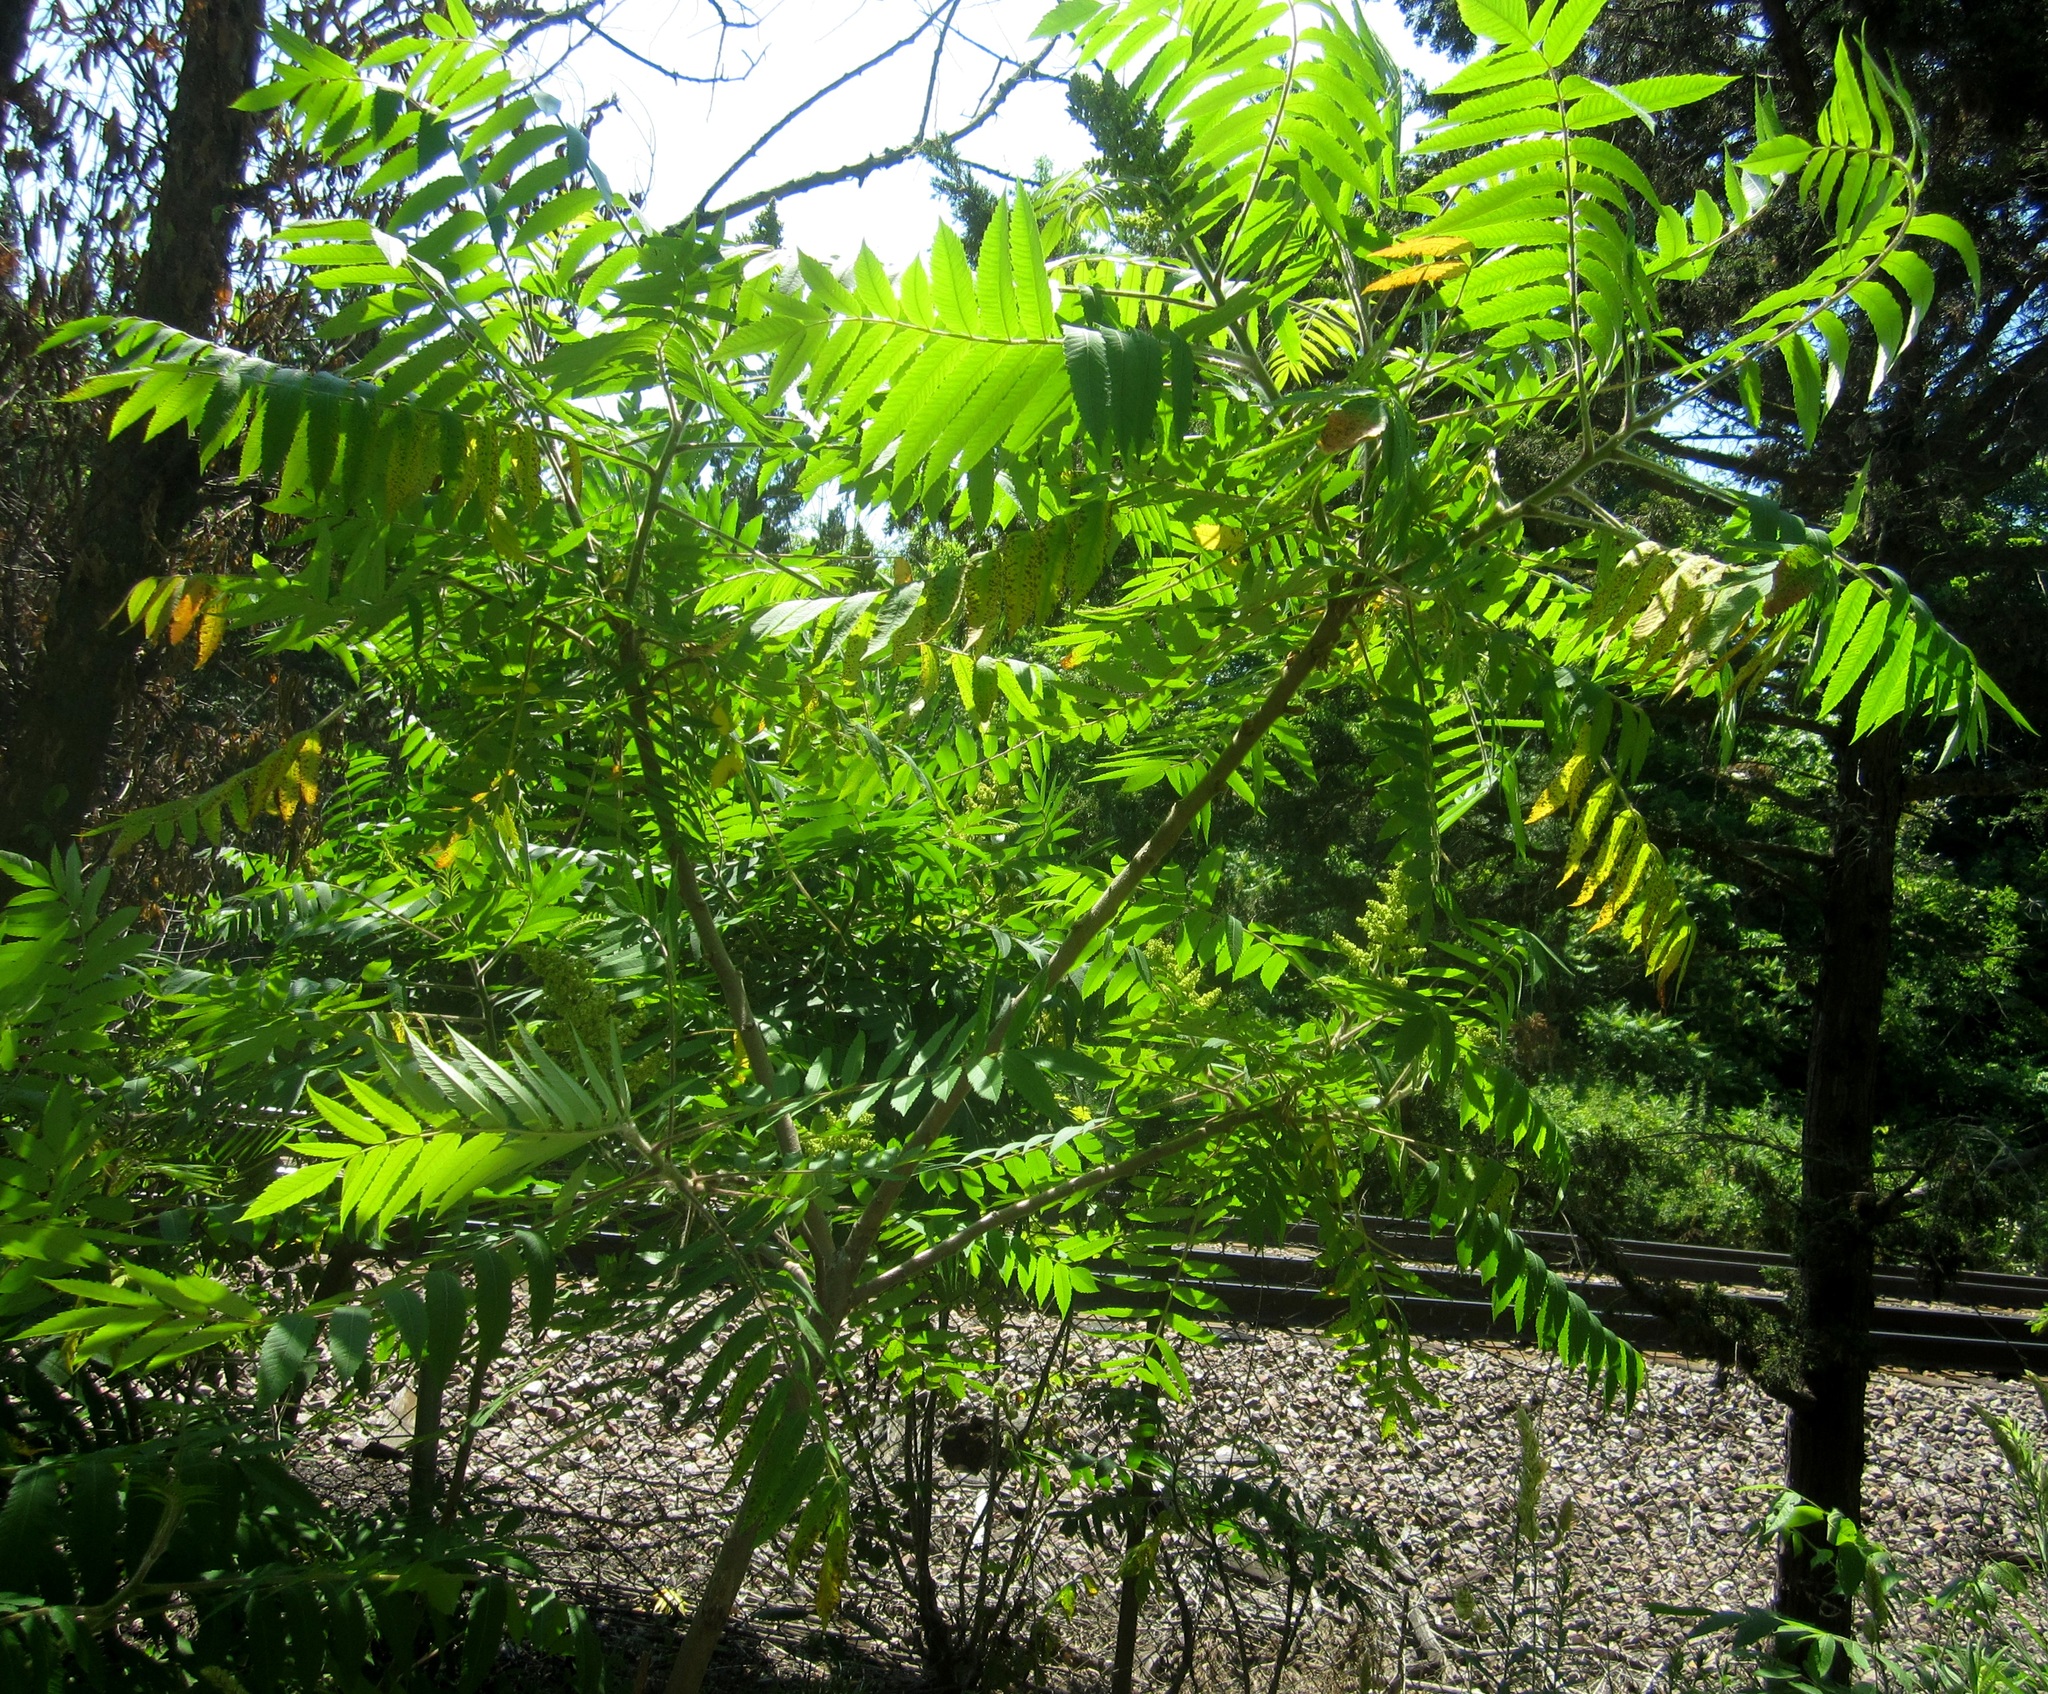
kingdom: Plantae
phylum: Tracheophyta
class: Magnoliopsida
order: Sapindales
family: Anacardiaceae
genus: Rhus
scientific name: Rhus typhina
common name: Staghorn sumac
